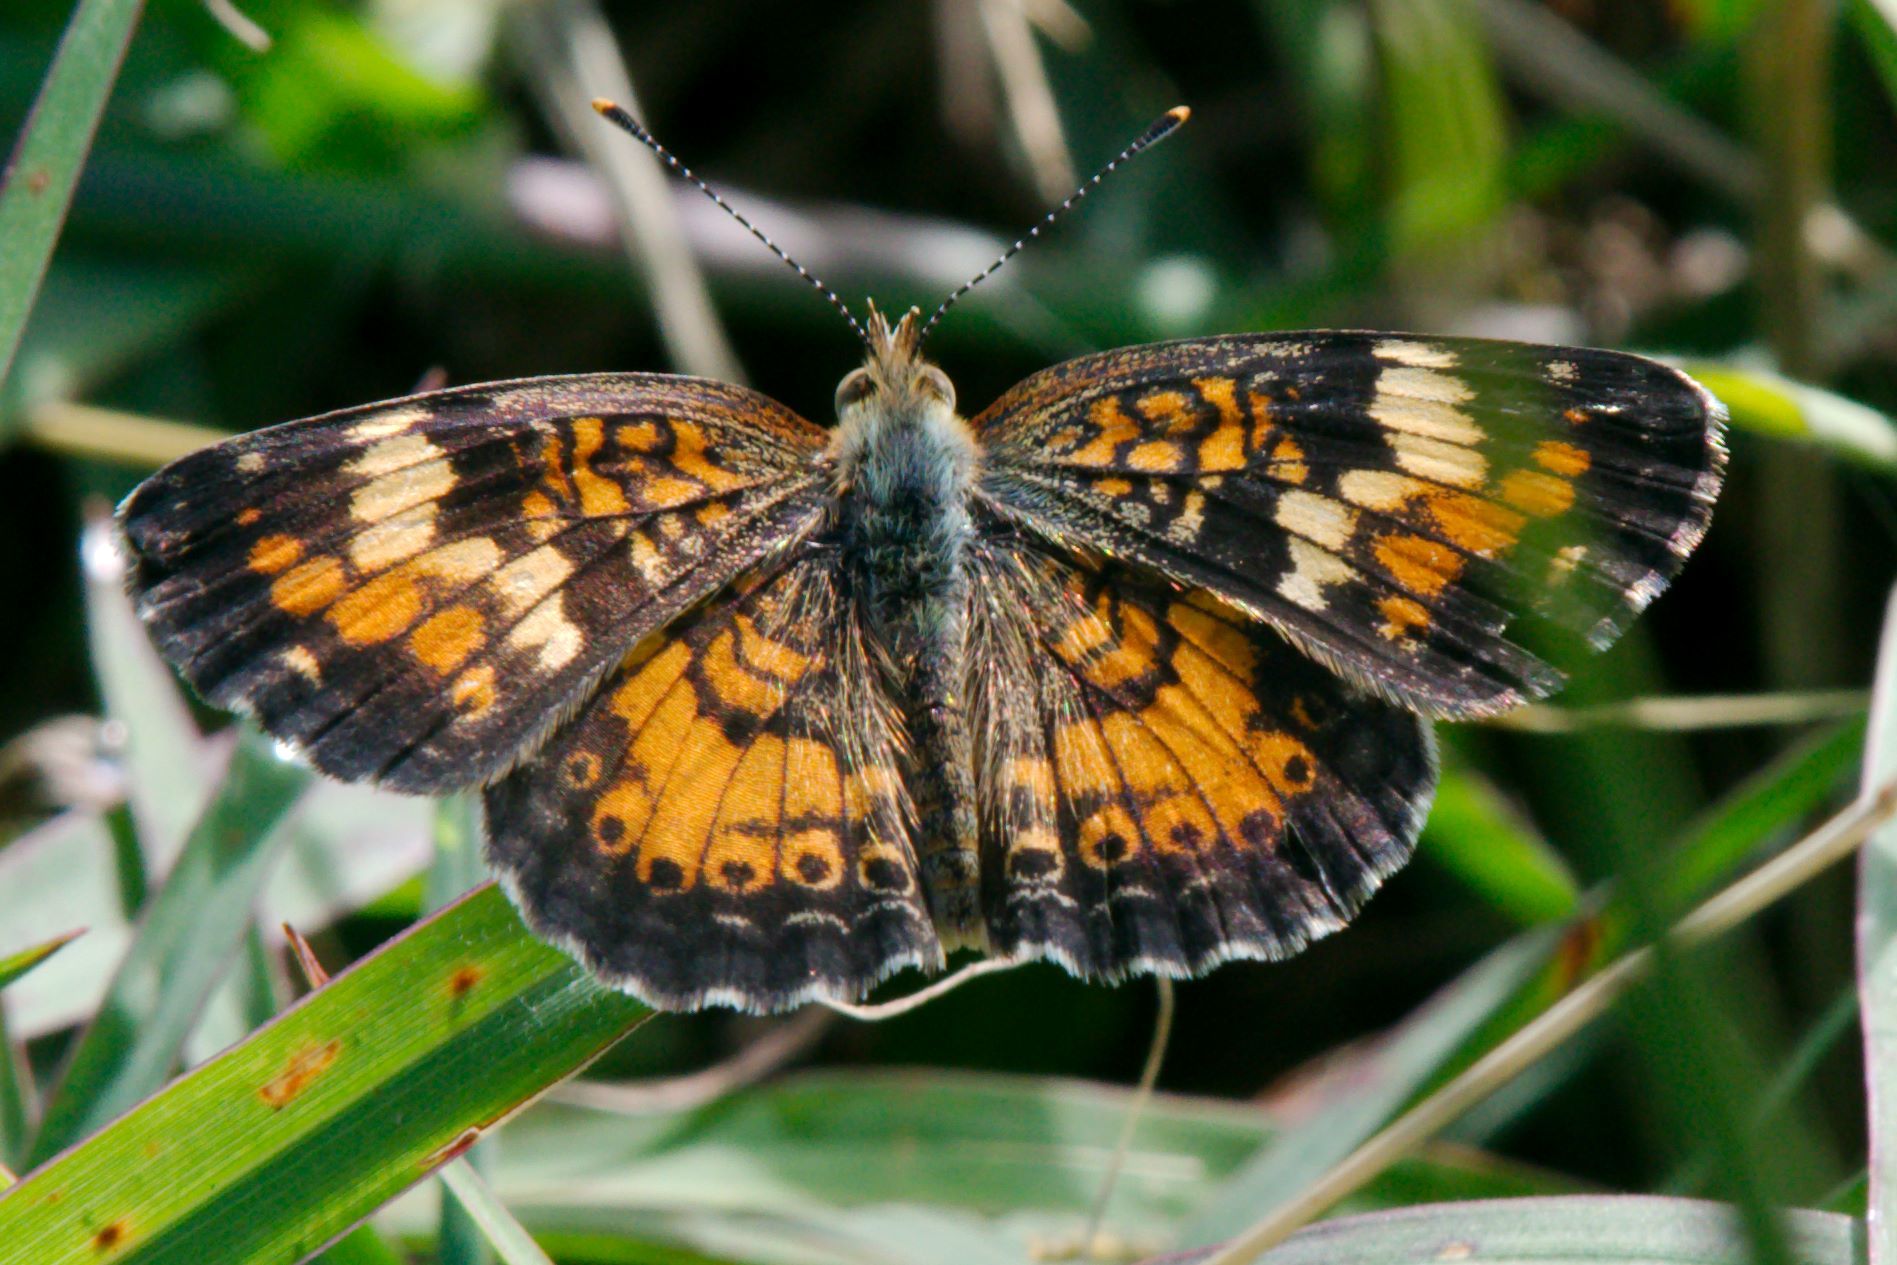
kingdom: Animalia
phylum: Arthropoda
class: Insecta
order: Lepidoptera
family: Nymphalidae
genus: Phyciodes
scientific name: Phyciodes phaon
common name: Phaon crescent
